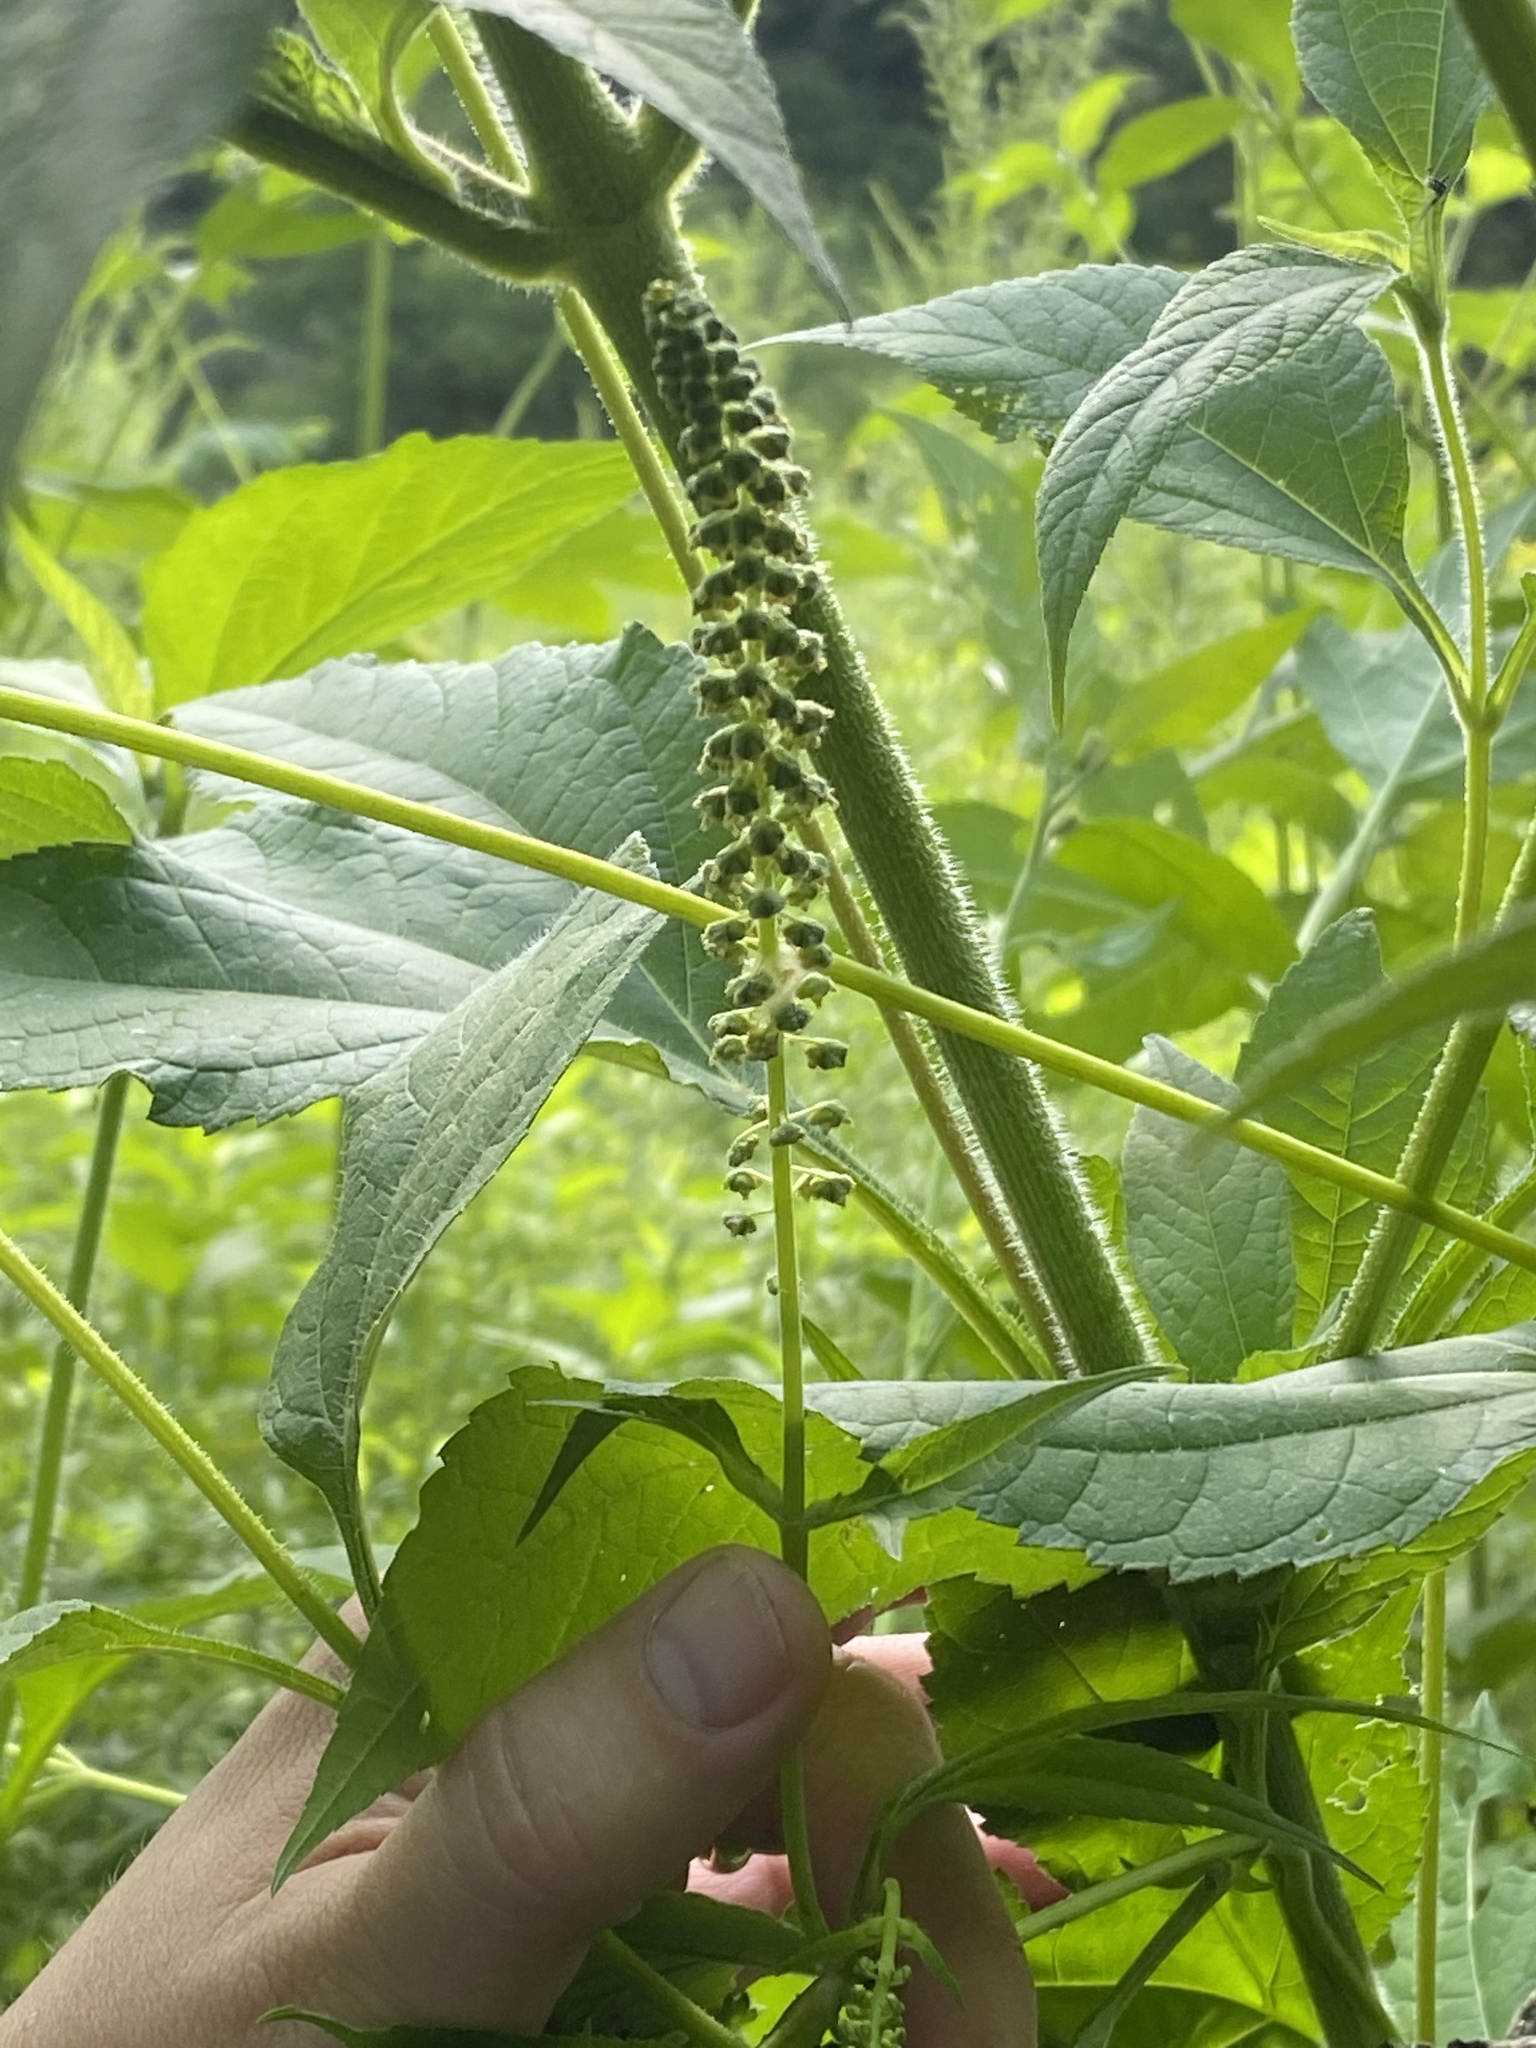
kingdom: Plantae
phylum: Tracheophyta
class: Magnoliopsida
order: Asterales
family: Asteraceae
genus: Ambrosia
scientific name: Ambrosia trifida
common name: Giant ragweed
